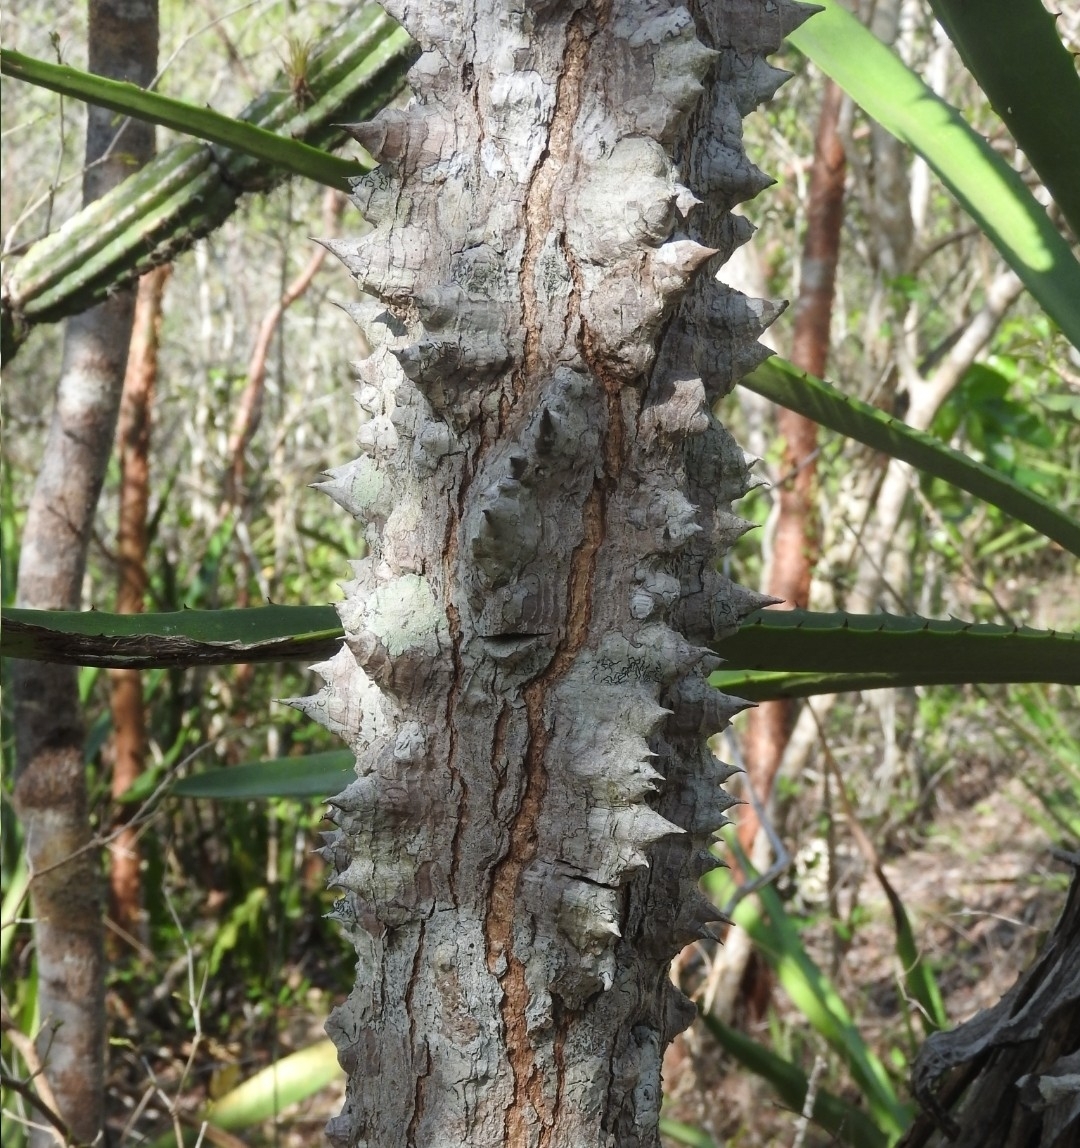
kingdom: Plantae
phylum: Tracheophyta
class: Magnoliopsida
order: Malvales
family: Malvaceae
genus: Ceiba
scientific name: Ceiba schottii
